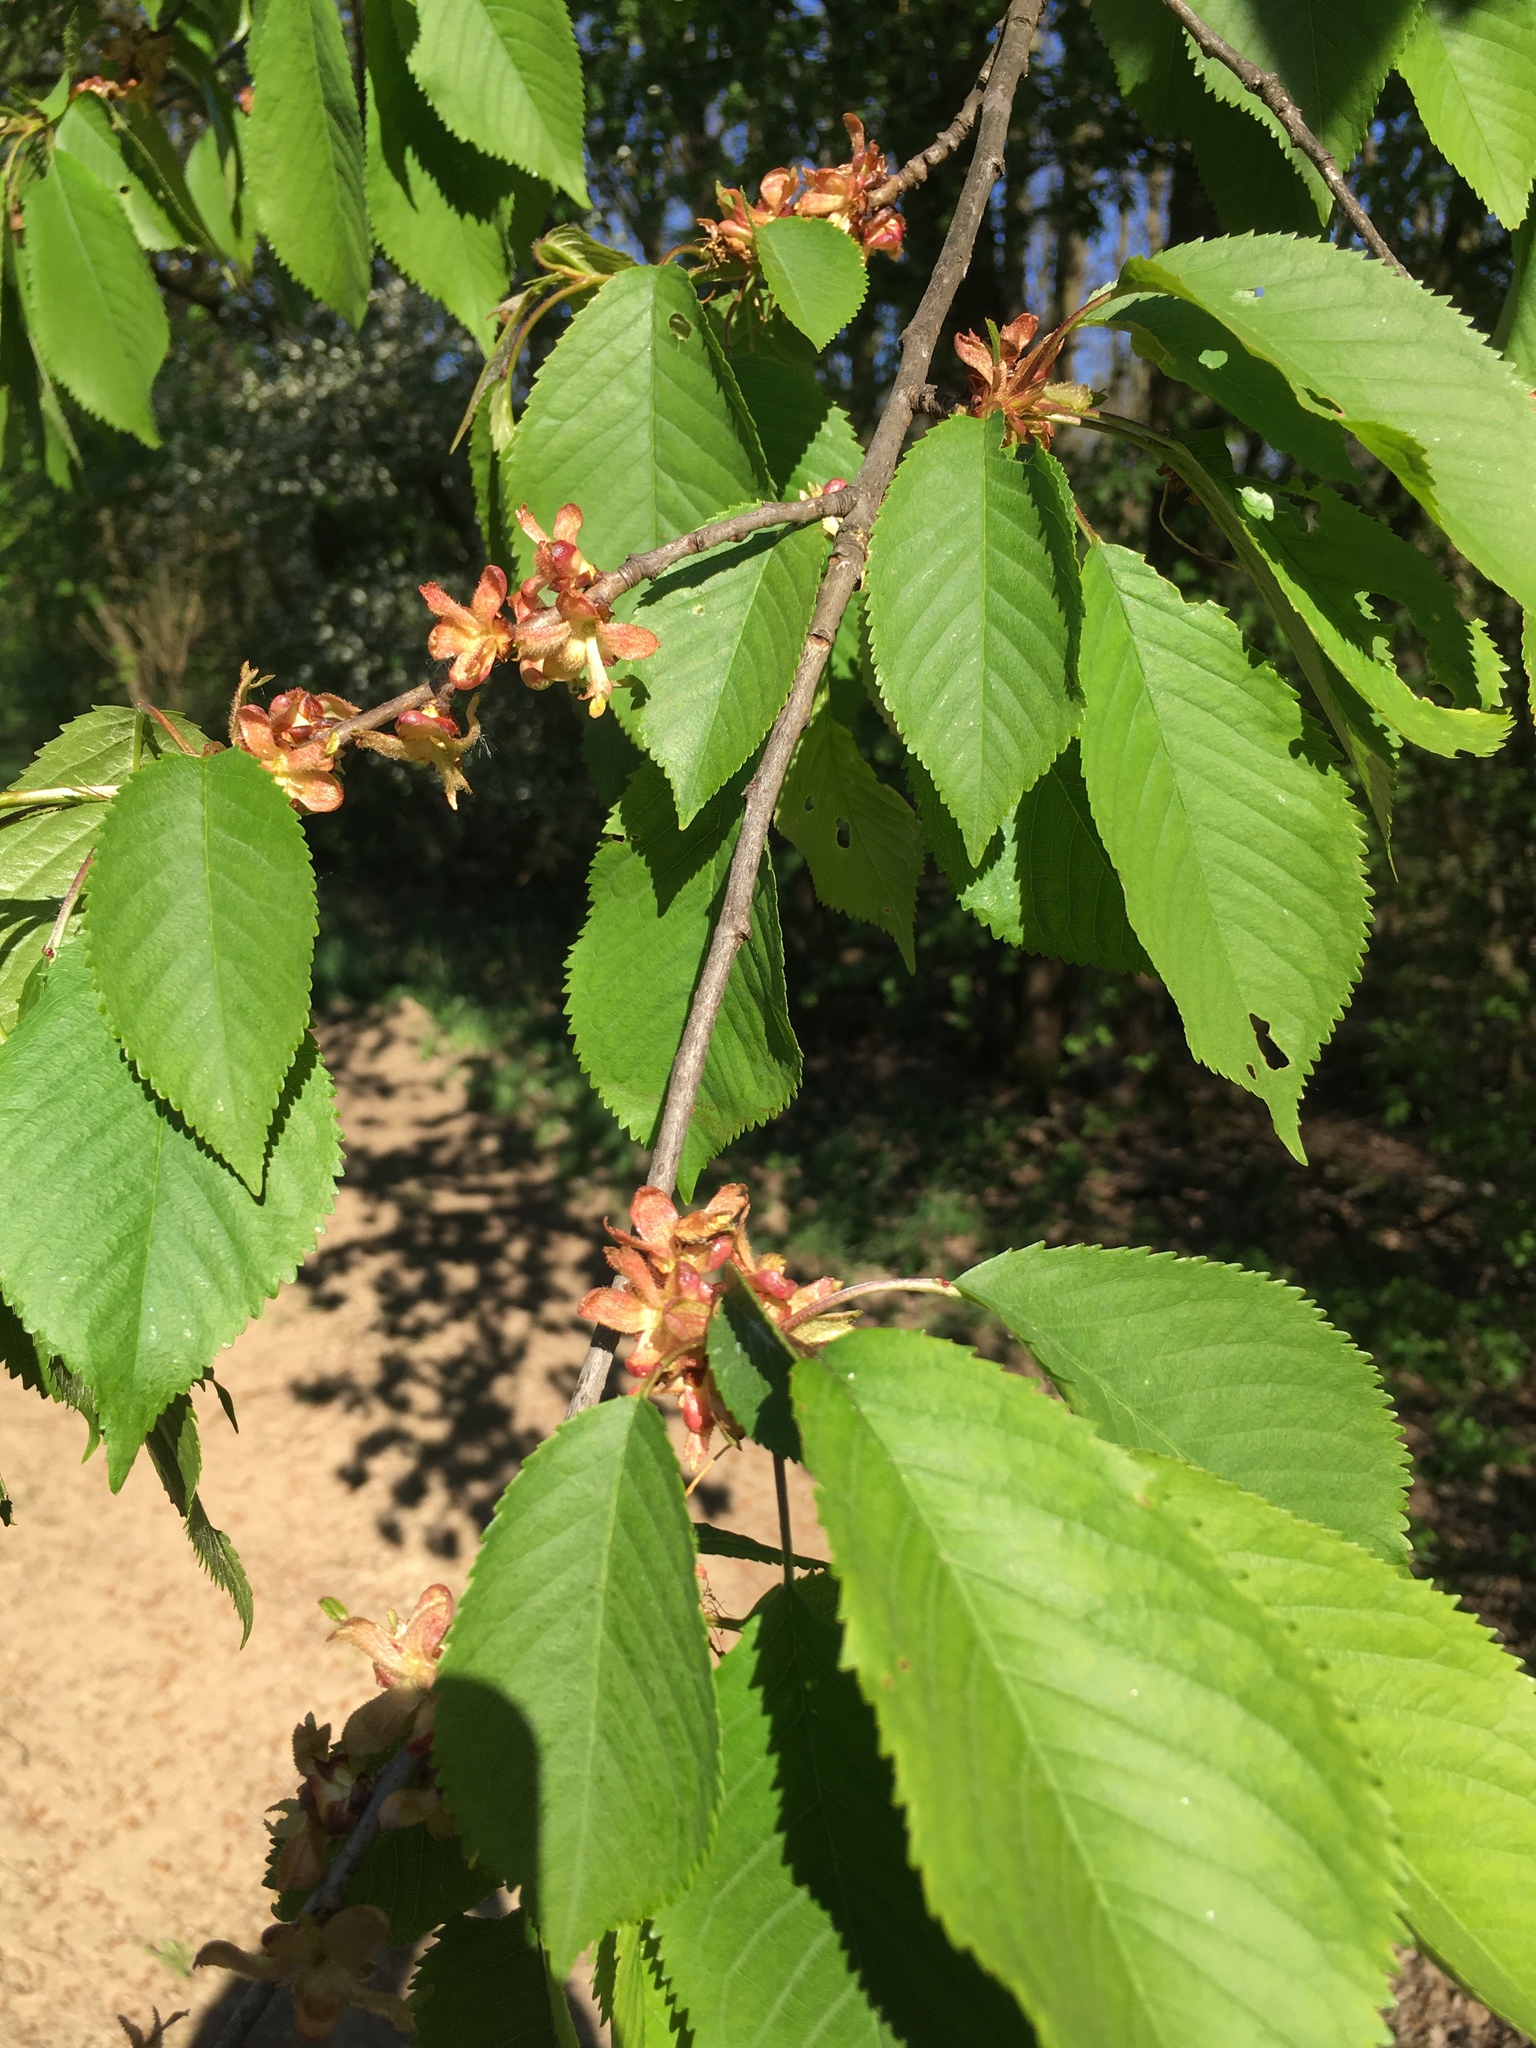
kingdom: Plantae
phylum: Tracheophyta
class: Magnoliopsida
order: Rosales
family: Rosaceae
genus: Prunus
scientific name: Prunus avium
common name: Sweet cherry
